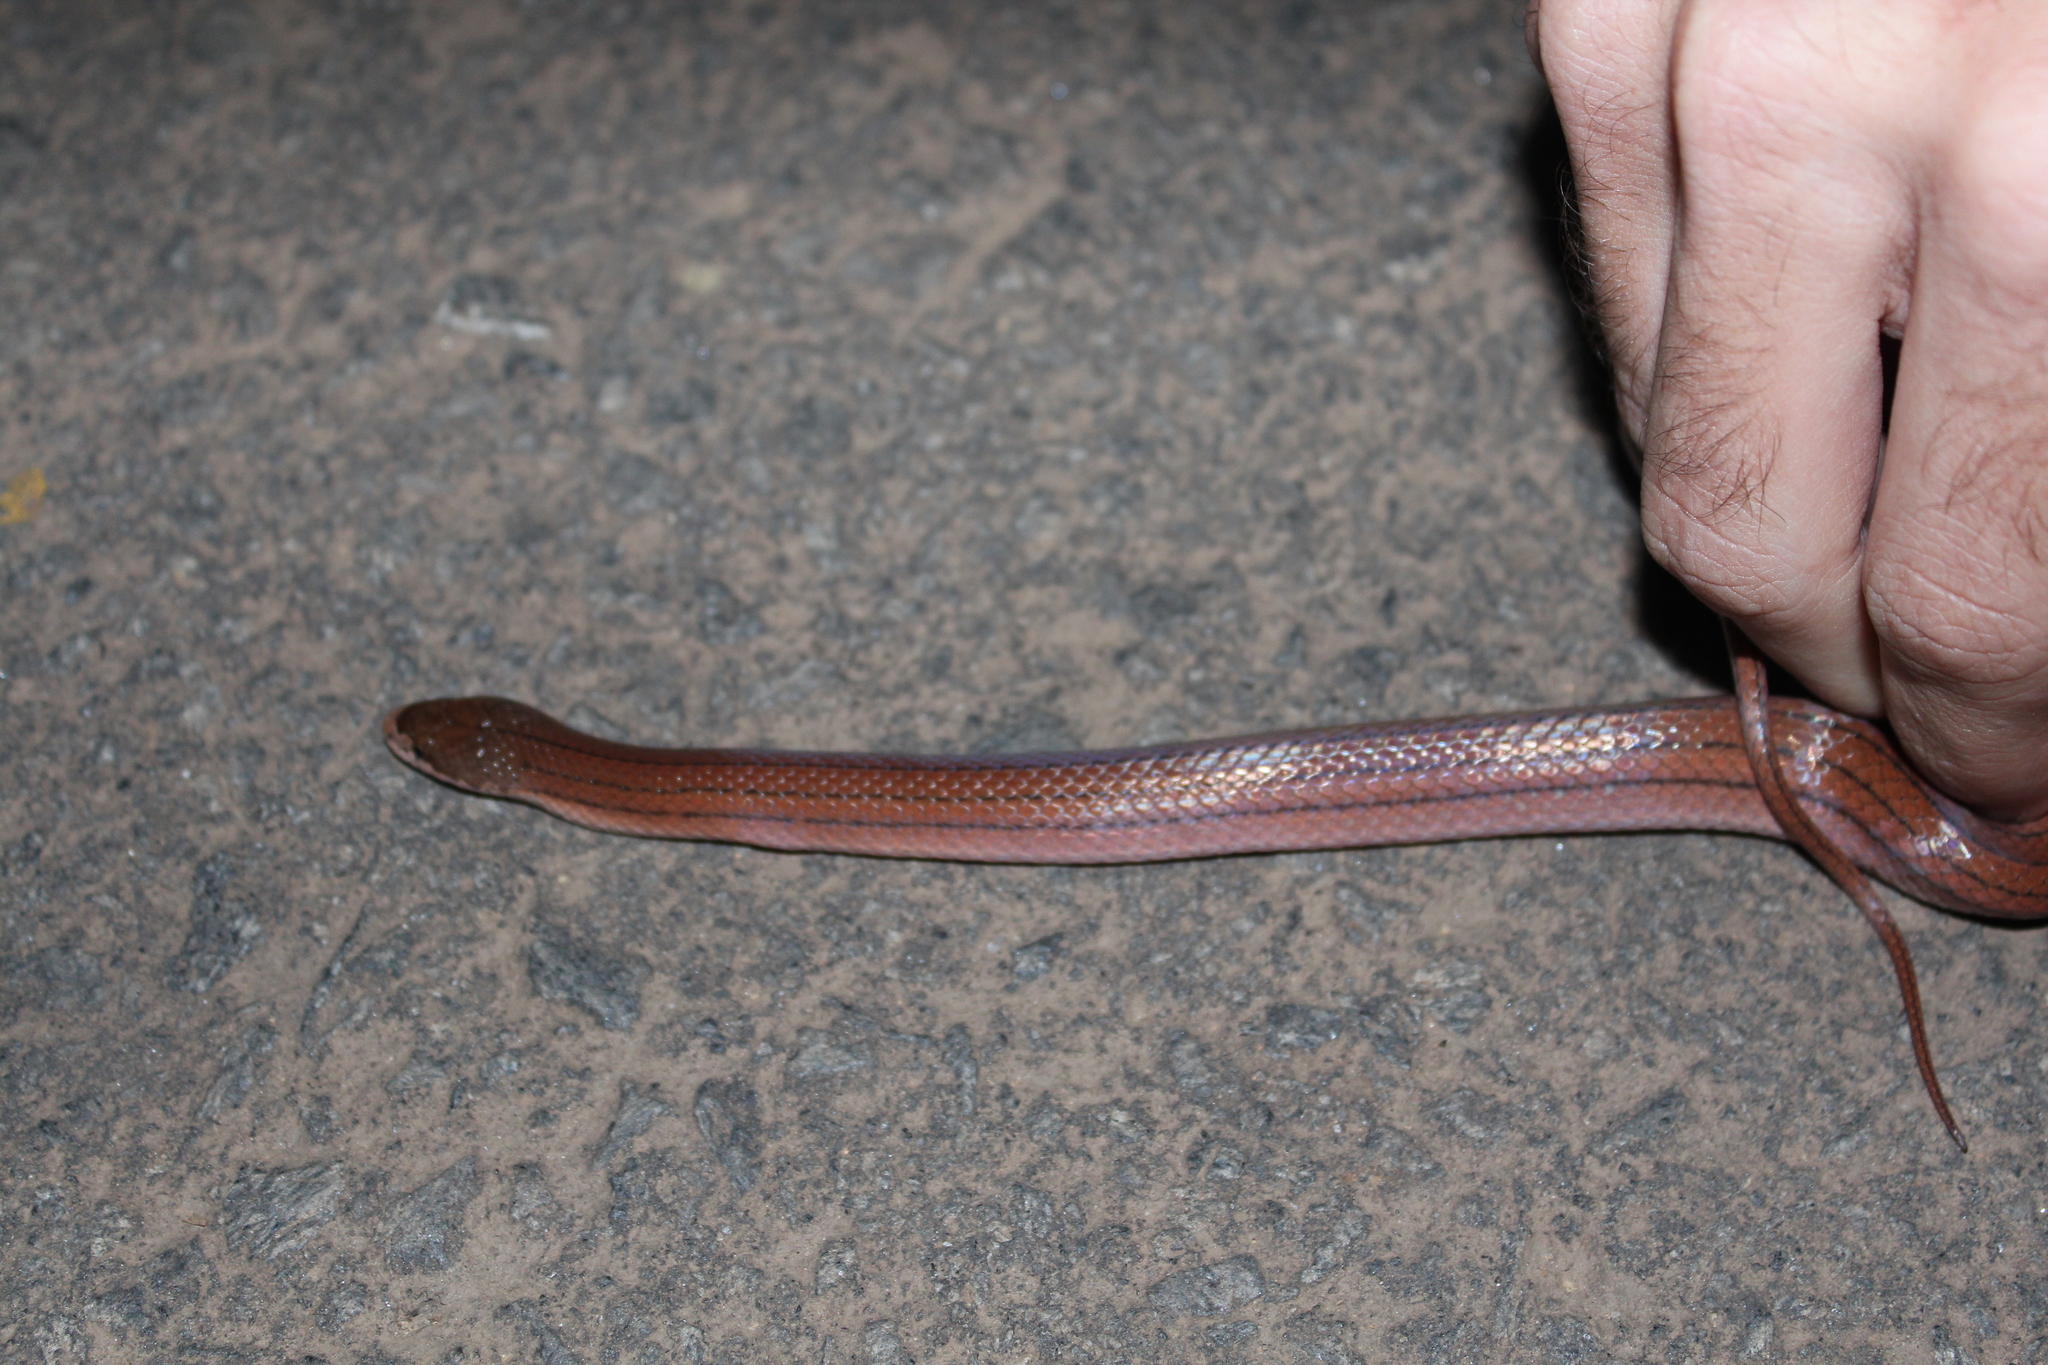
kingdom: Animalia
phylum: Chordata
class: Squamata
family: Pseudoxyrhophiidae
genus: Pseudoxyrhopus
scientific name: Pseudoxyrhopus quinquelineatus
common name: Striped brook snake
